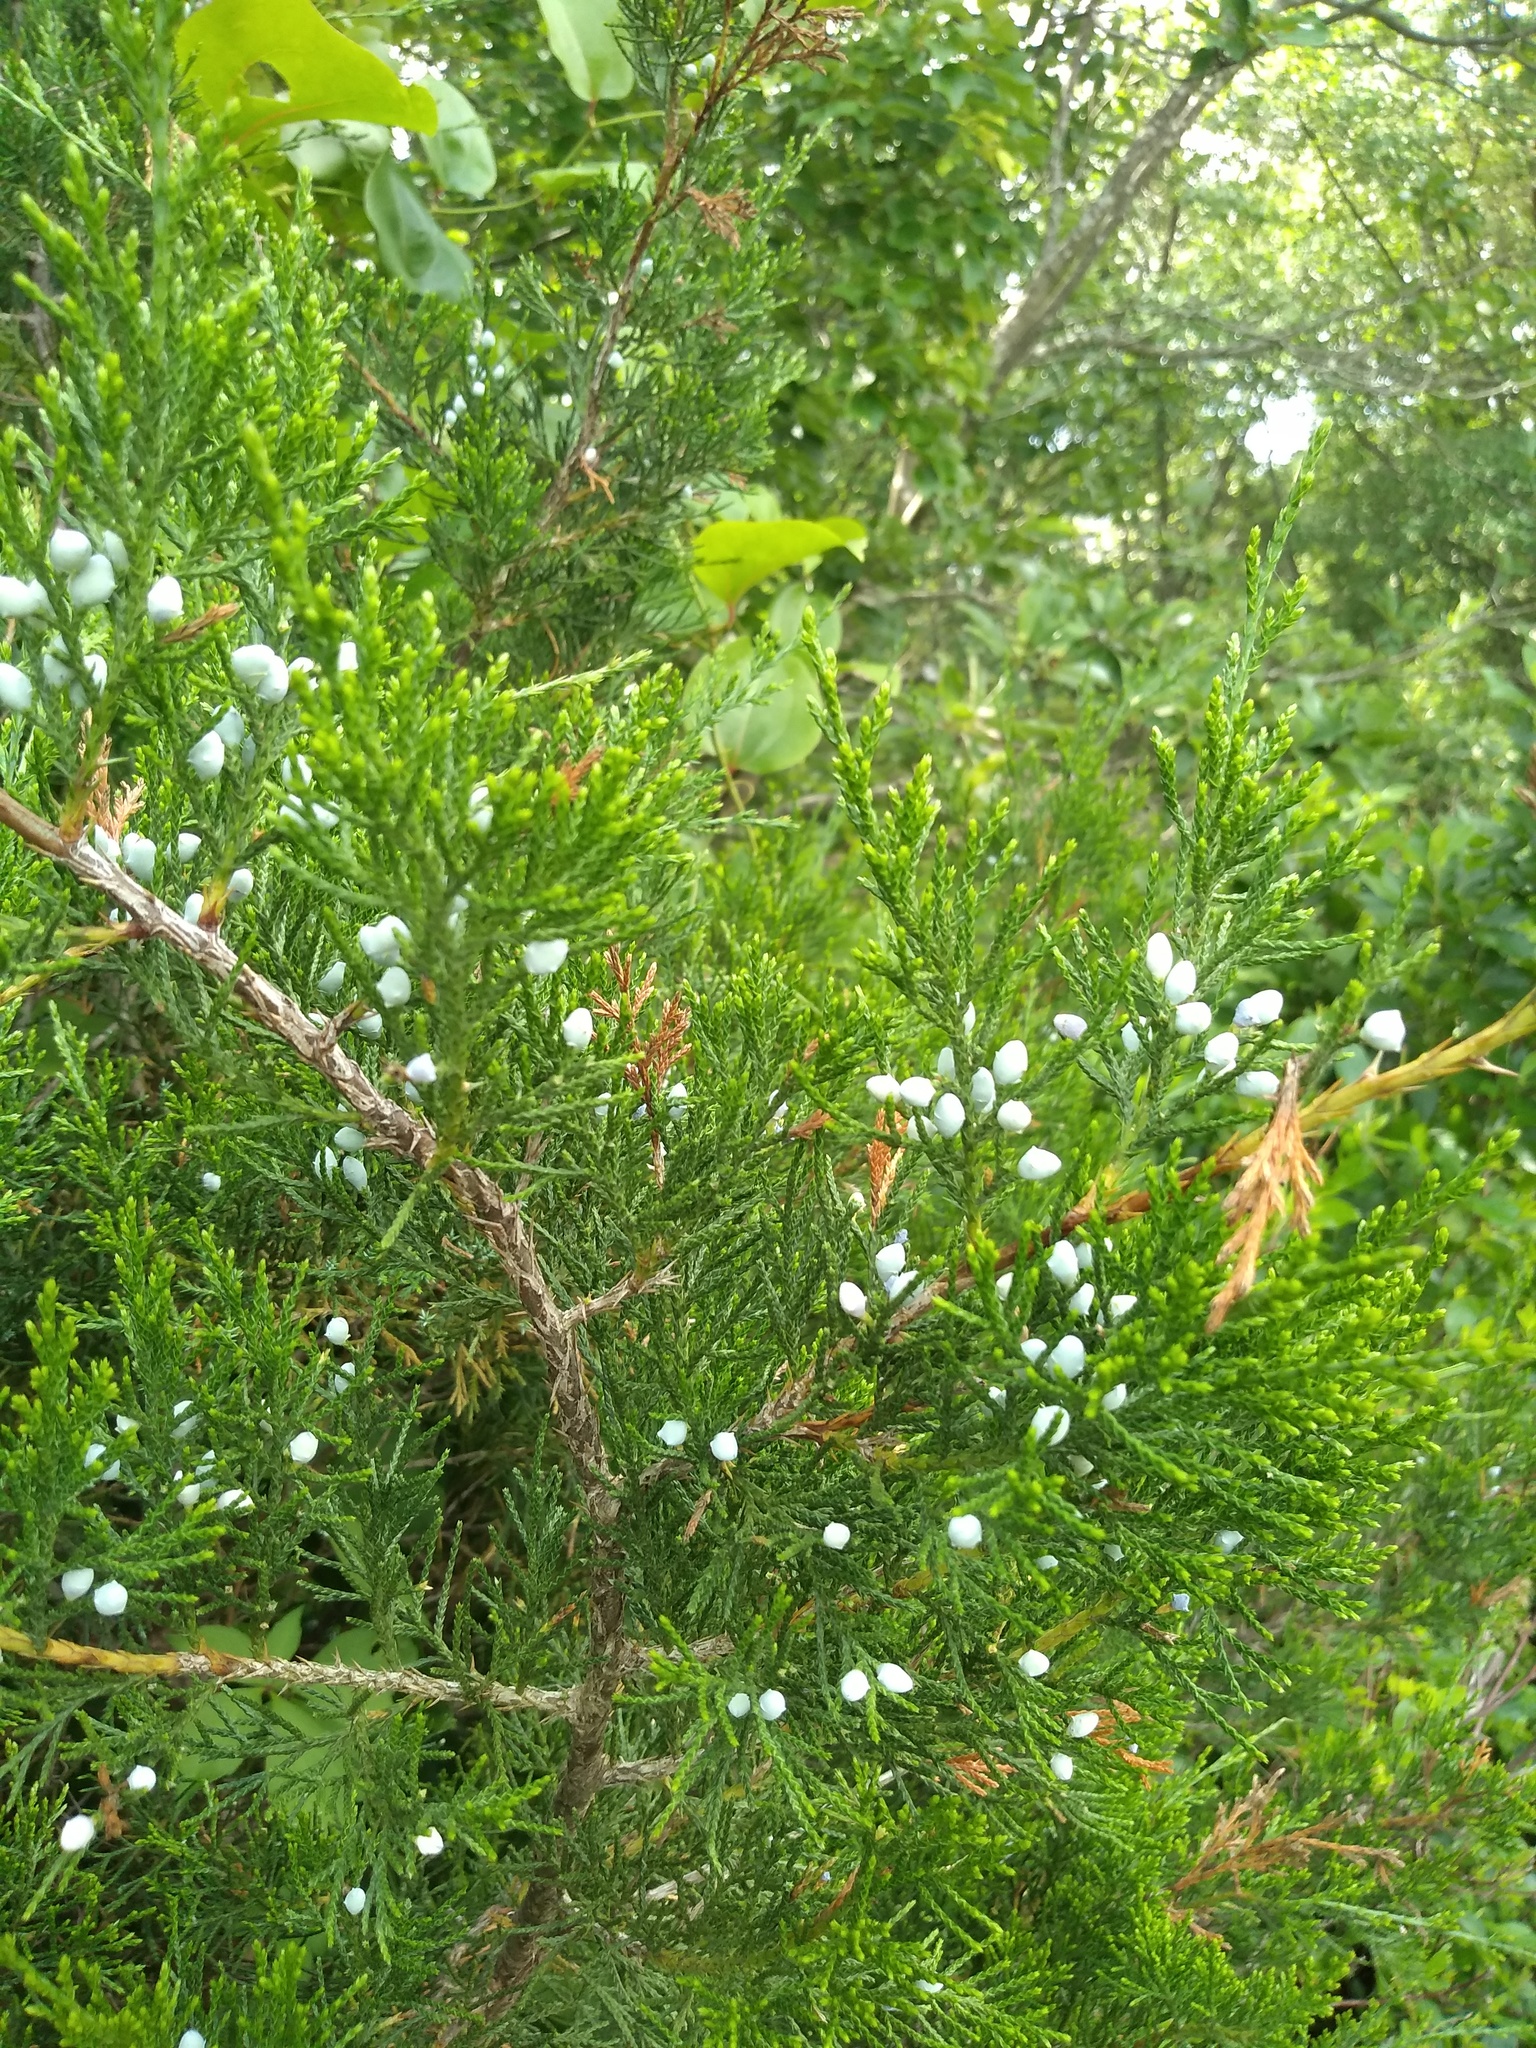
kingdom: Plantae
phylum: Tracheophyta
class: Pinopsida
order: Pinales
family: Cupressaceae
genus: Juniperus
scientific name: Juniperus virginiana
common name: Red juniper
